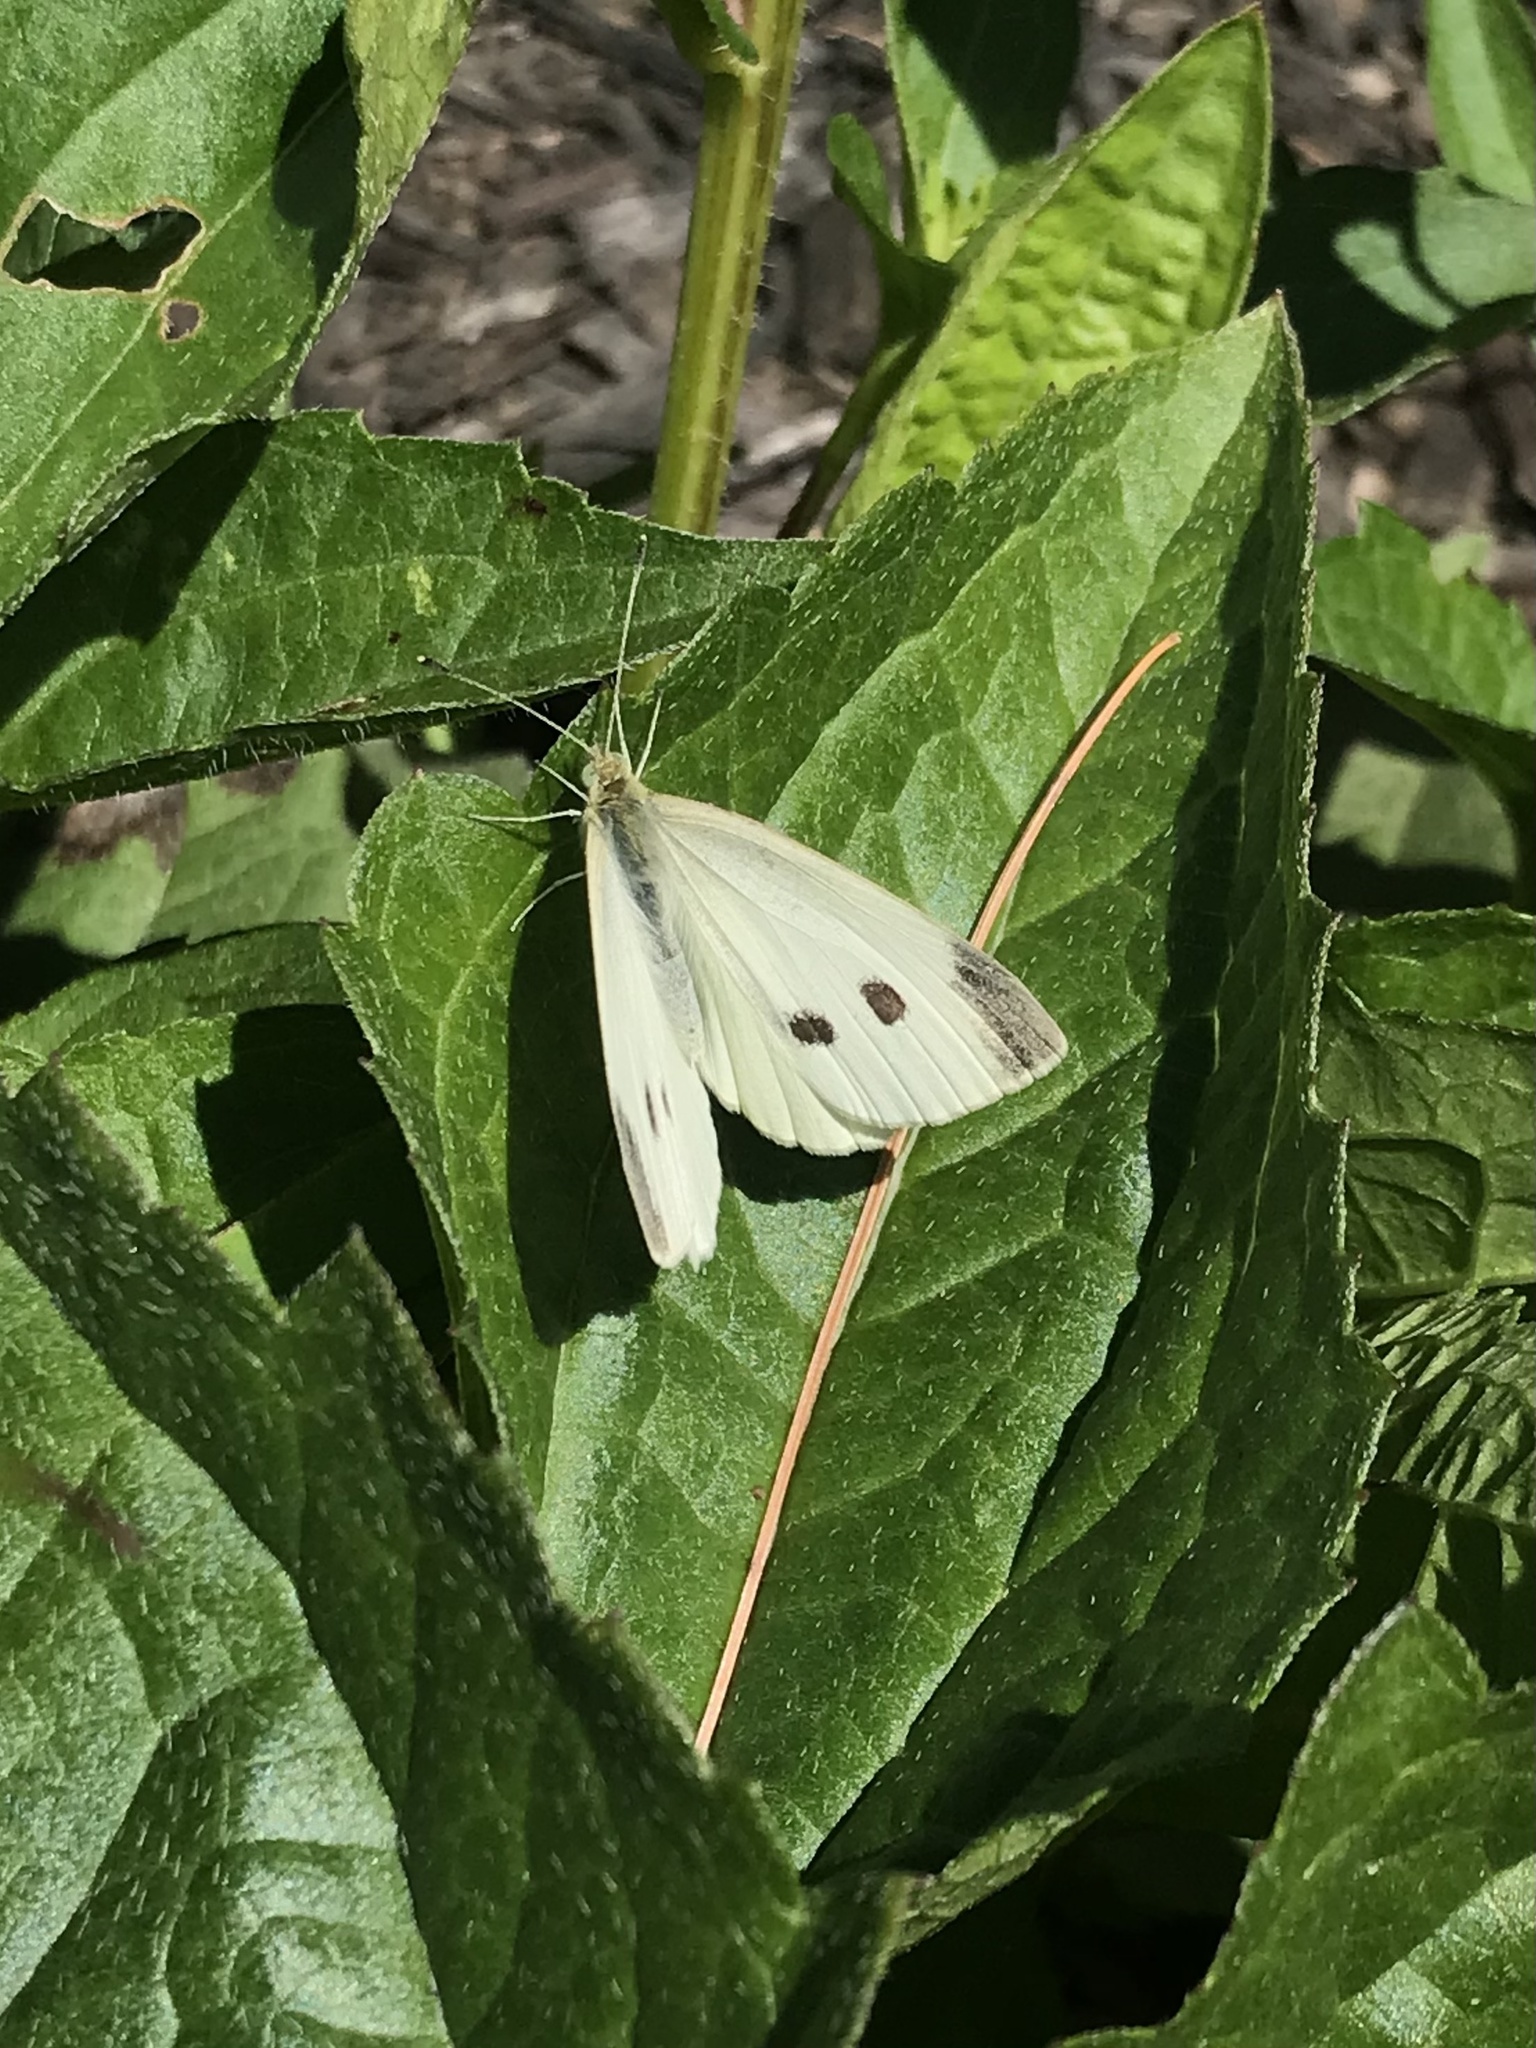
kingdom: Animalia
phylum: Arthropoda
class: Insecta
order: Lepidoptera
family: Pieridae
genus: Pieris
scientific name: Pieris rapae
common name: Small white
